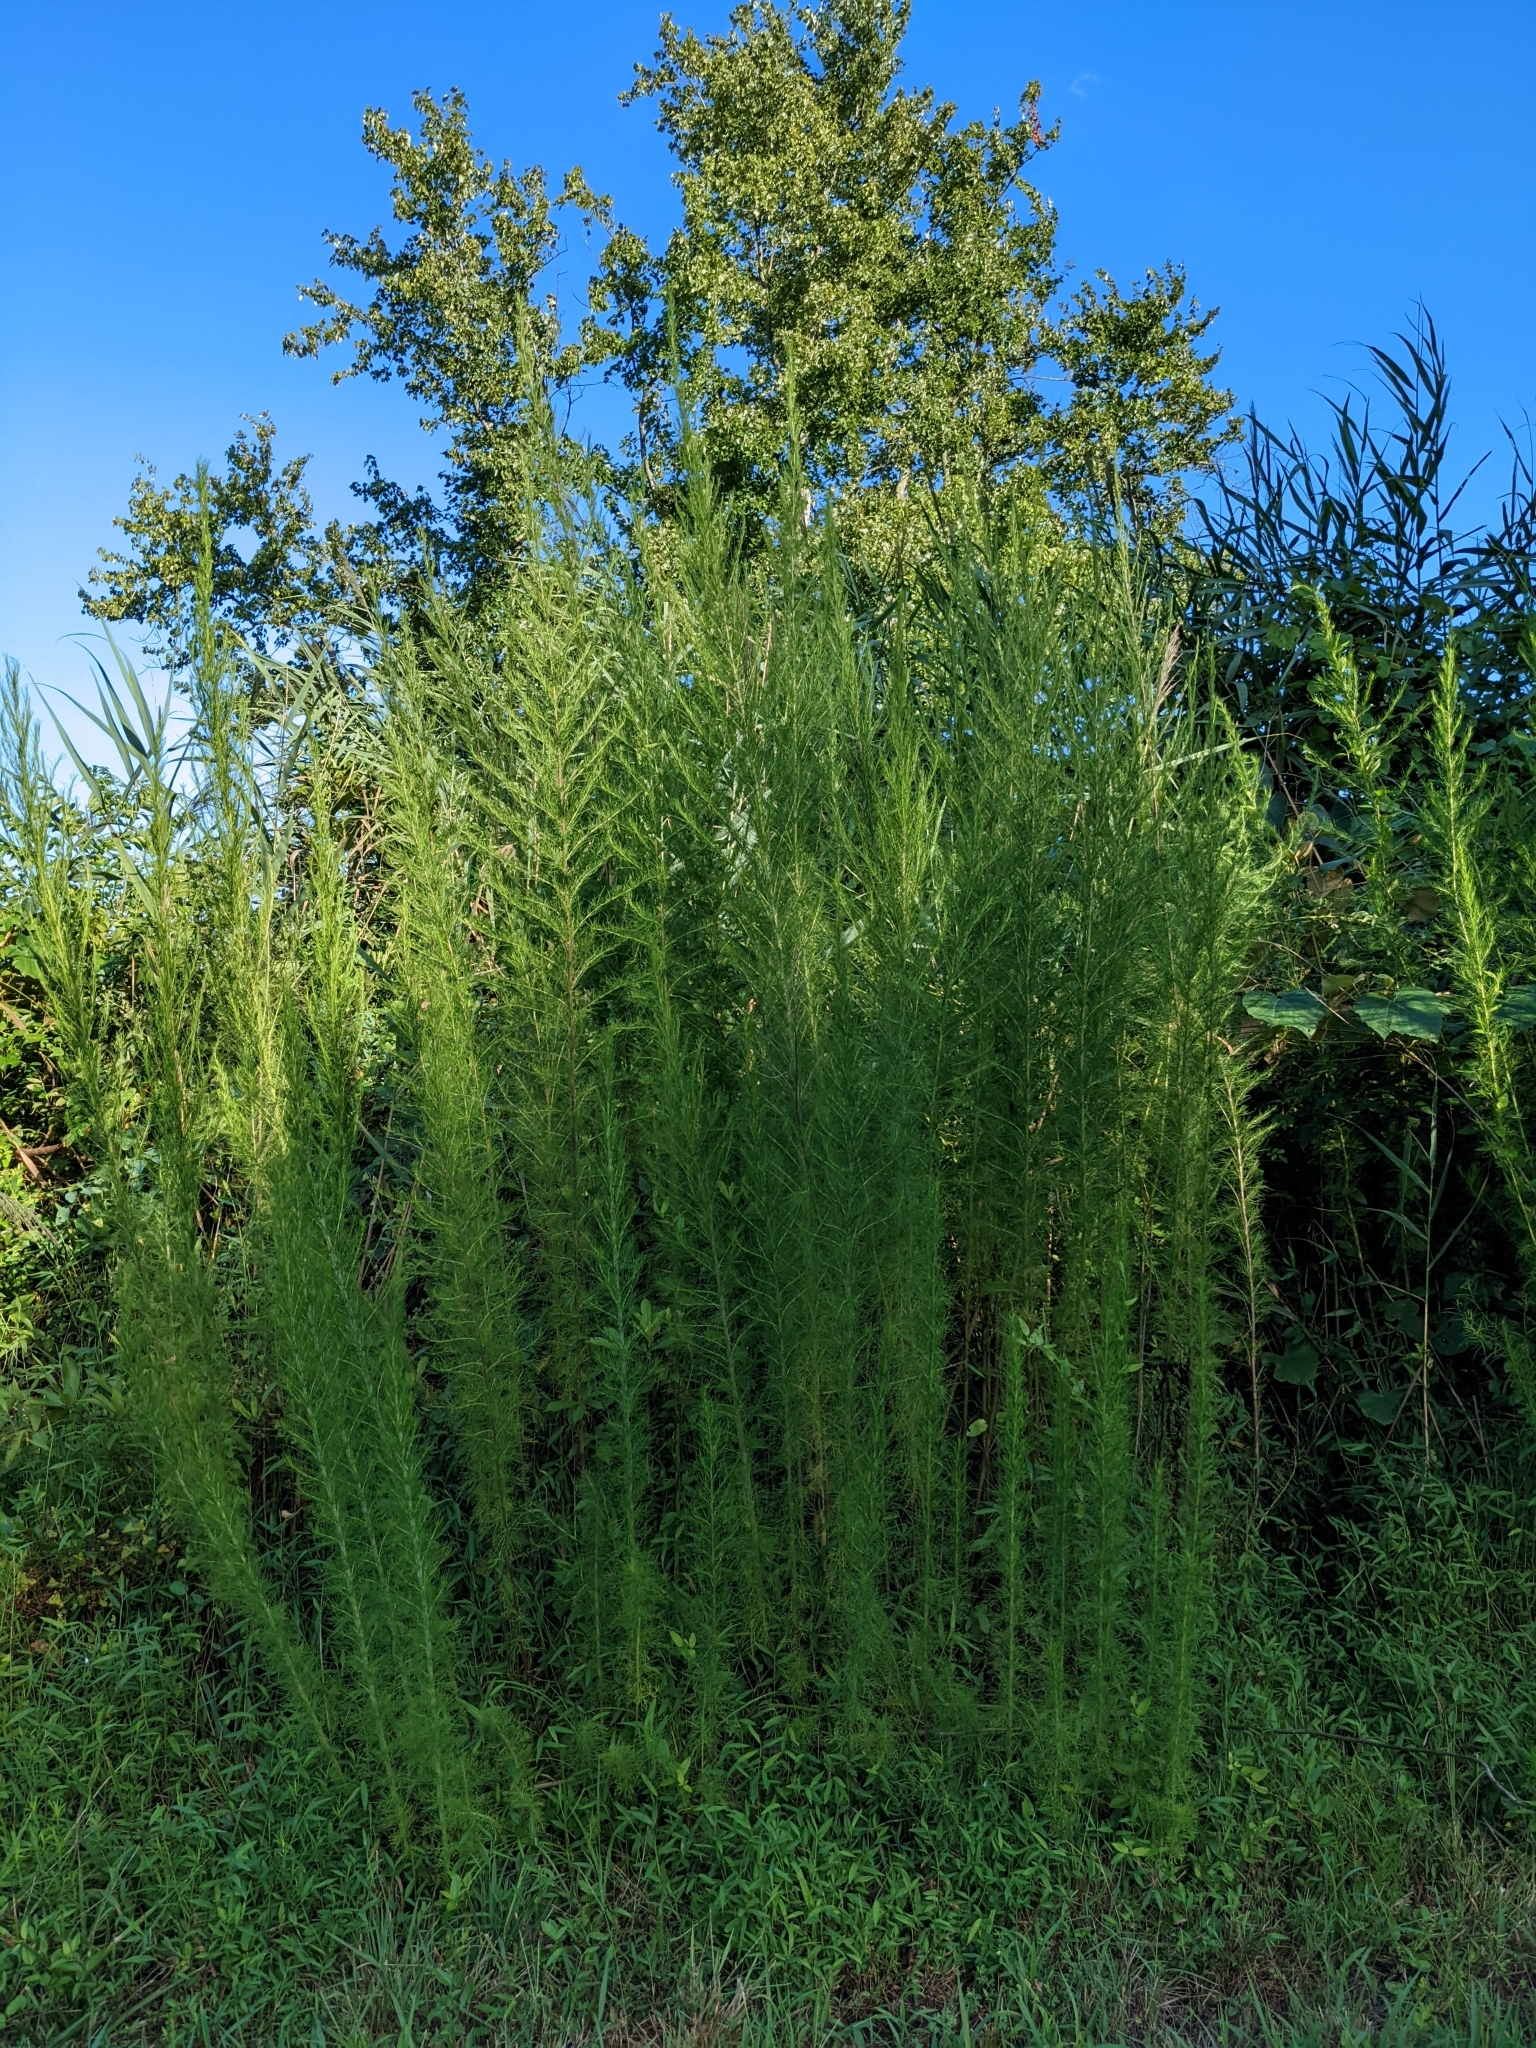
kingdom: Plantae
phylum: Tracheophyta
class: Magnoliopsida
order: Asterales
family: Asteraceae
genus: Eupatorium
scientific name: Eupatorium capillifolium
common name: Dog-fennel
